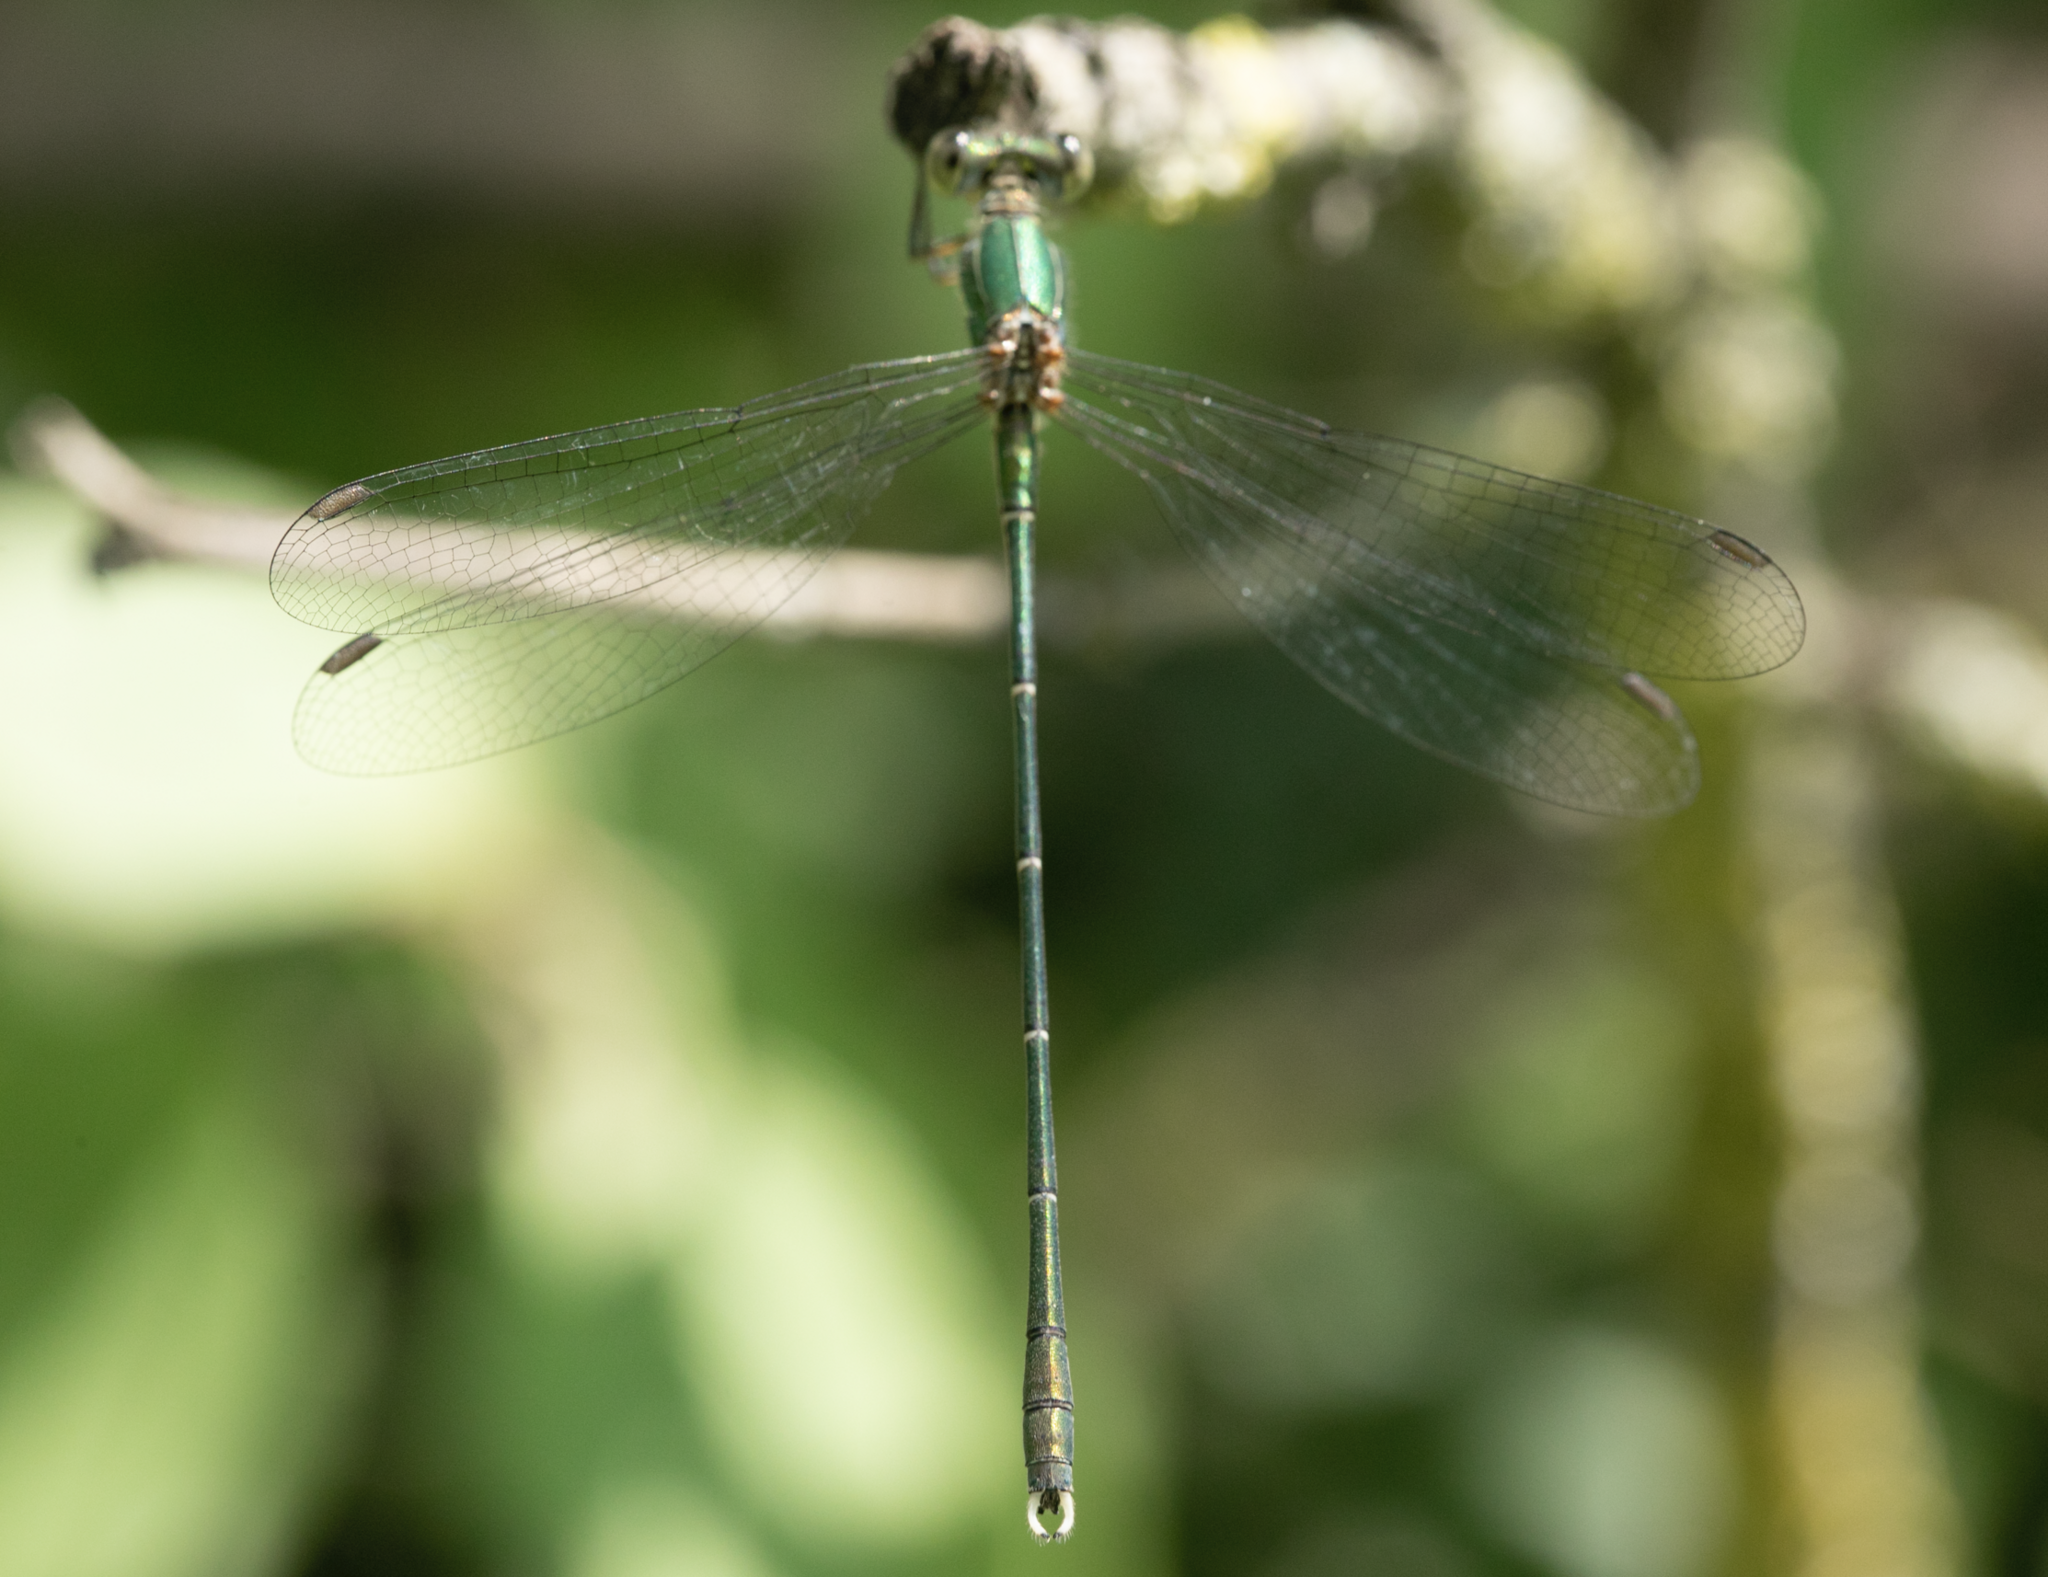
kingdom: Animalia
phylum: Arthropoda
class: Insecta
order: Odonata
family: Lestidae
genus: Chalcolestes
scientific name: Chalcolestes parvidens
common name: Eastern willow spreadwing
